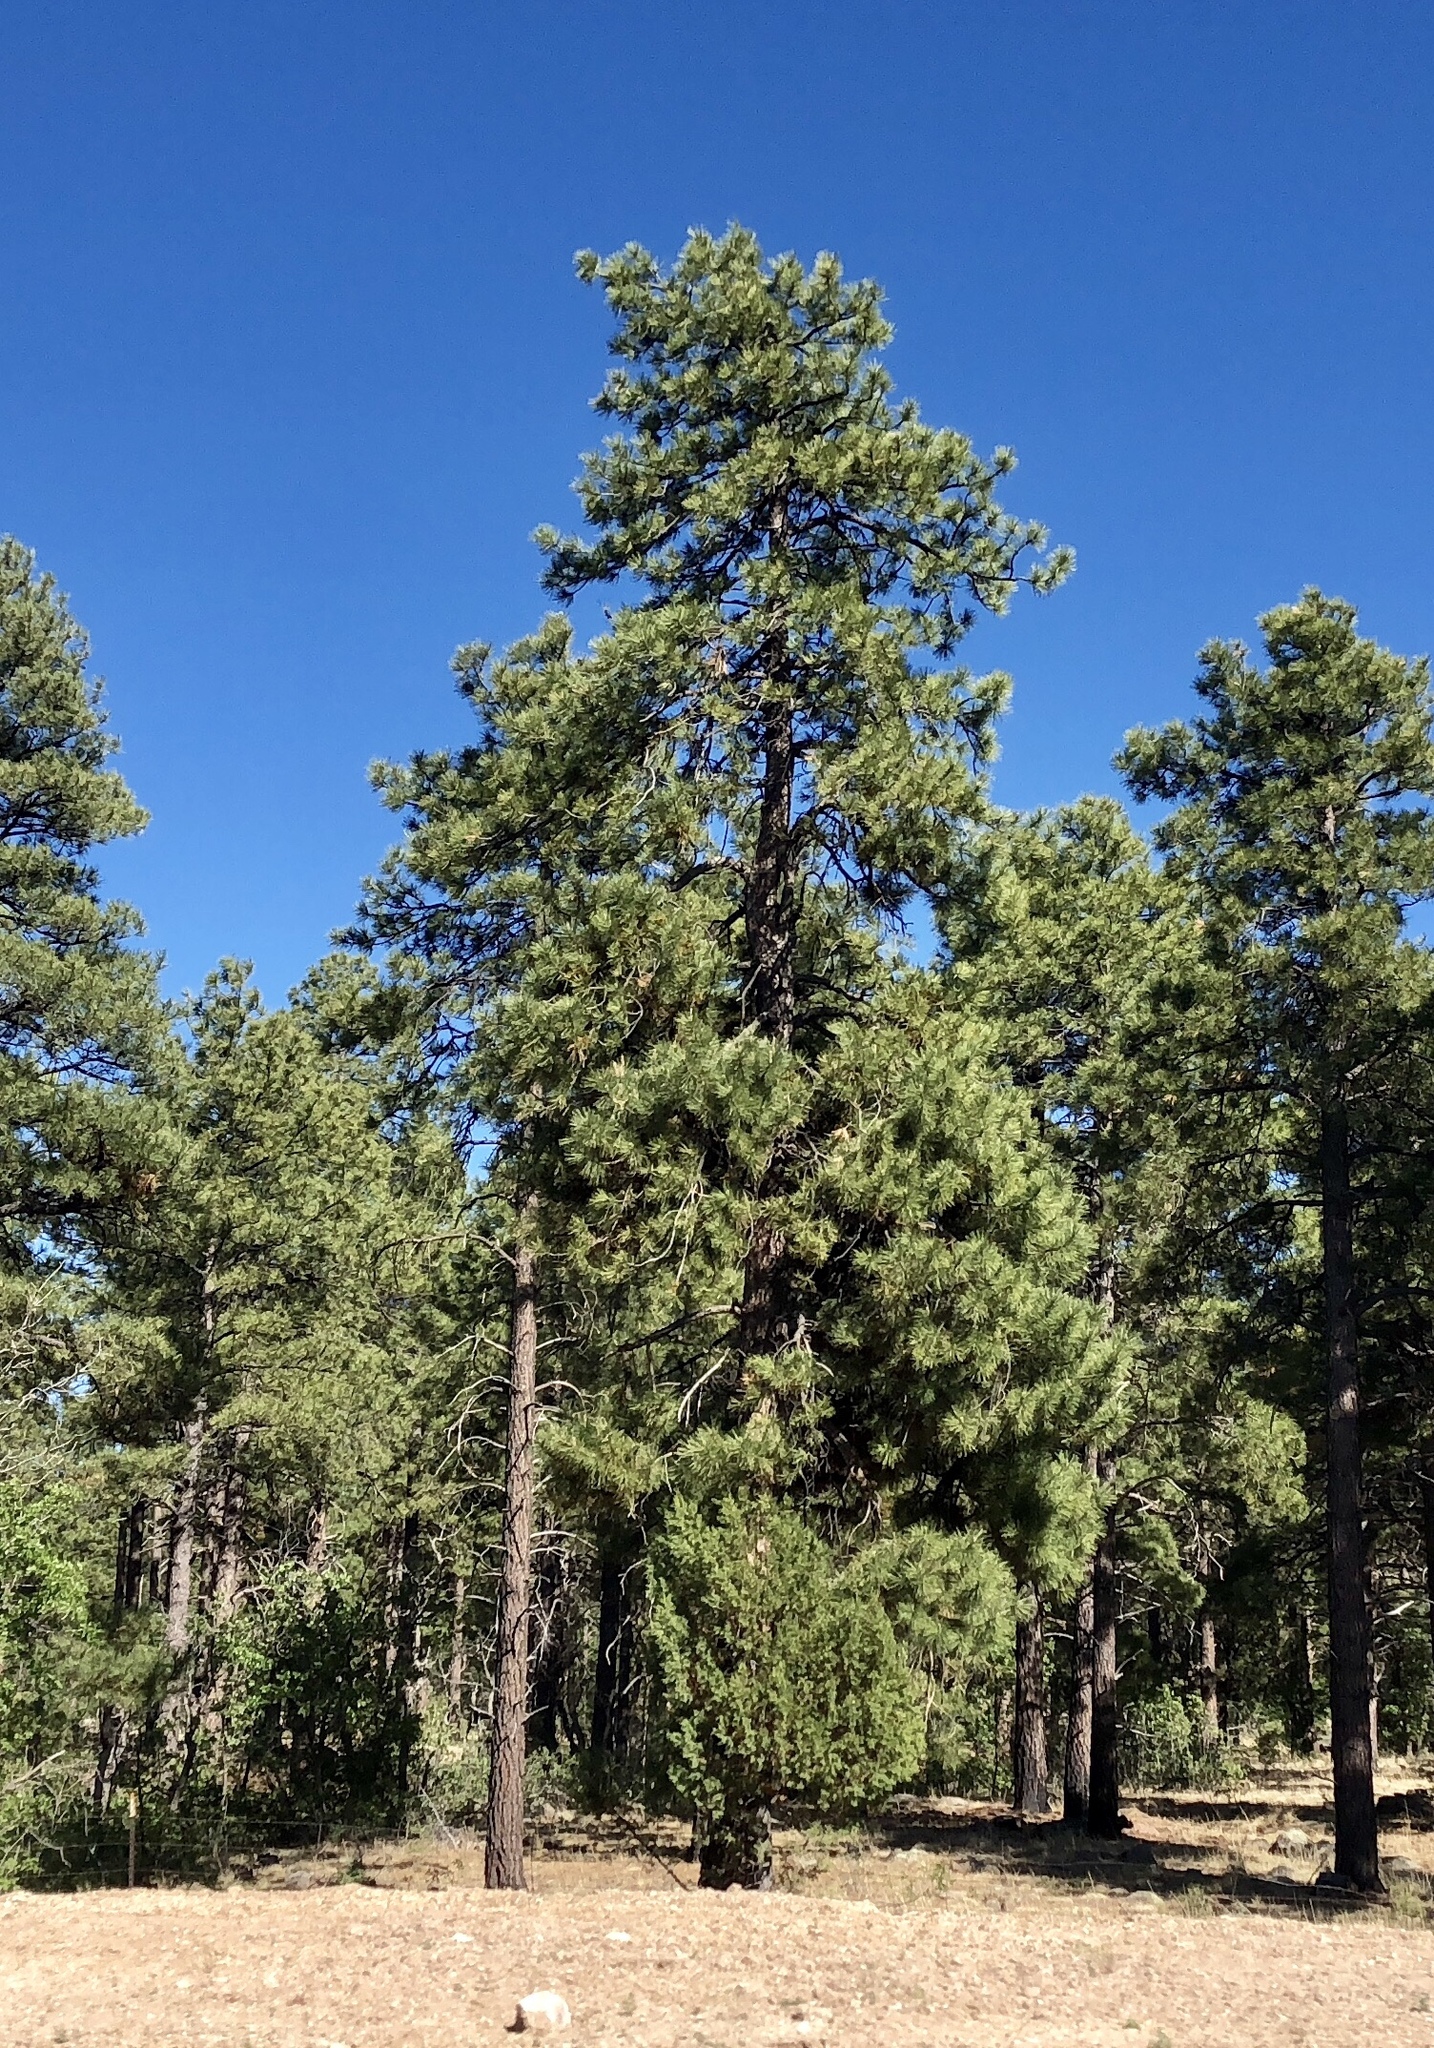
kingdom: Plantae
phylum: Tracheophyta
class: Pinopsida
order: Pinales
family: Pinaceae
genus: Pinus
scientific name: Pinus ponderosa
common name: Western yellow-pine
